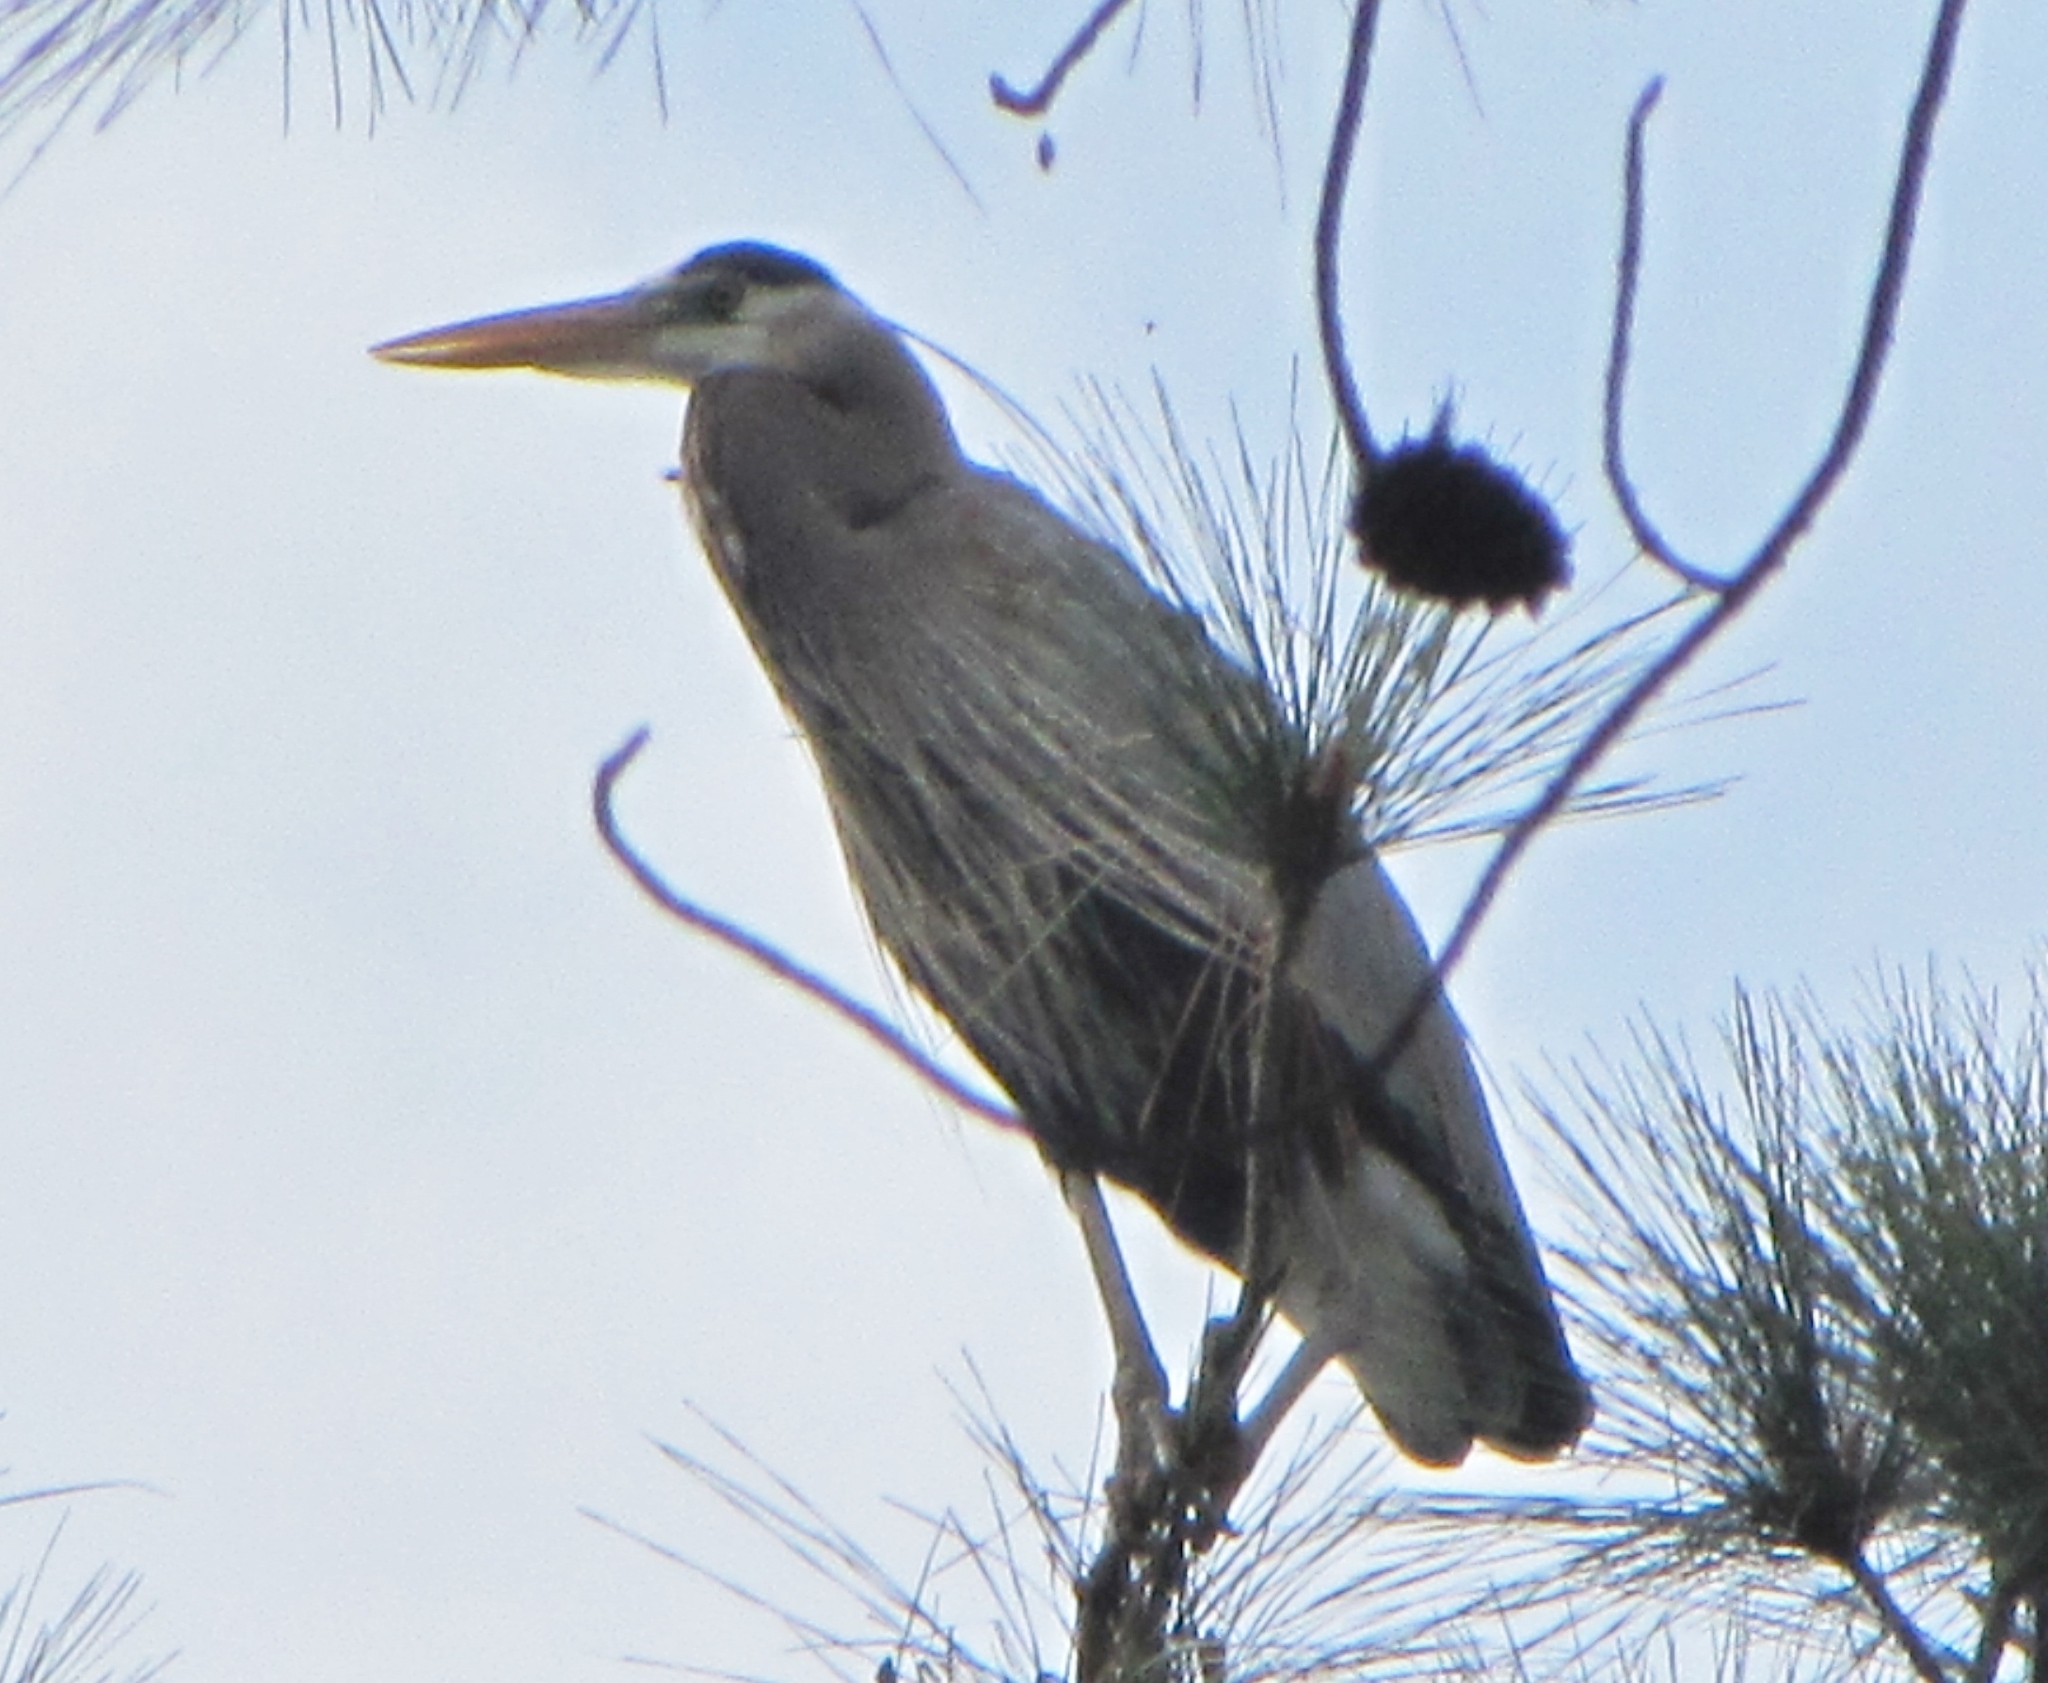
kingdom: Animalia
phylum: Chordata
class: Aves
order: Pelecaniformes
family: Ardeidae
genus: Ardea
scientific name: Ardea herodias
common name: Great blue heron
